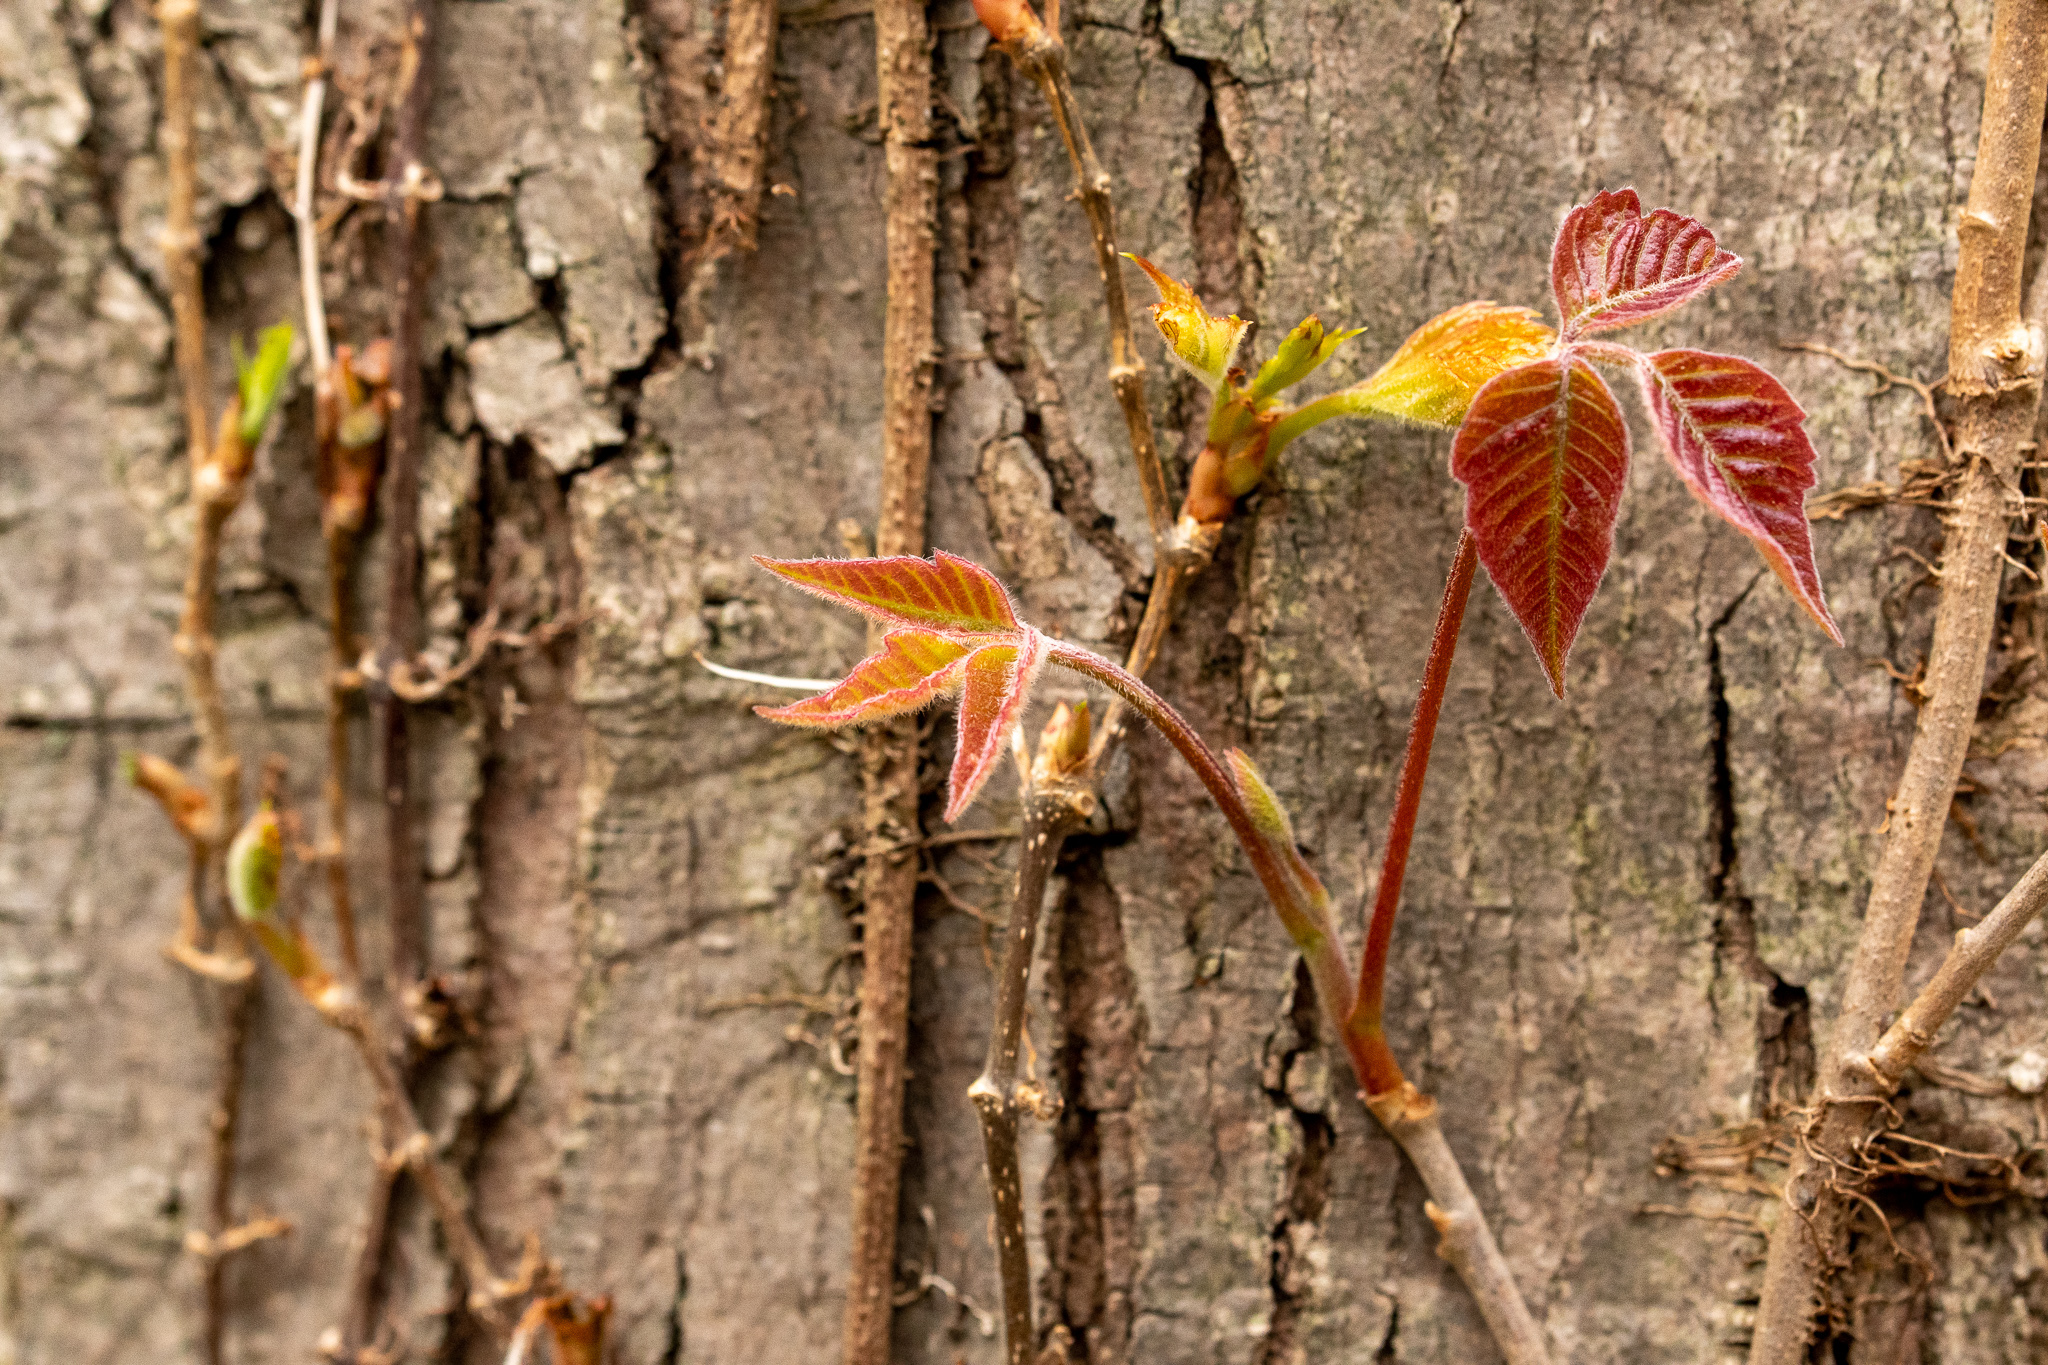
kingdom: Plantae
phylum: Tracheophyta
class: Magnoliopsida
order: Sapindales
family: Anacardiaceae
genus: Toxicodendron
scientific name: Toxicodendron radicans
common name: Poison ivy
